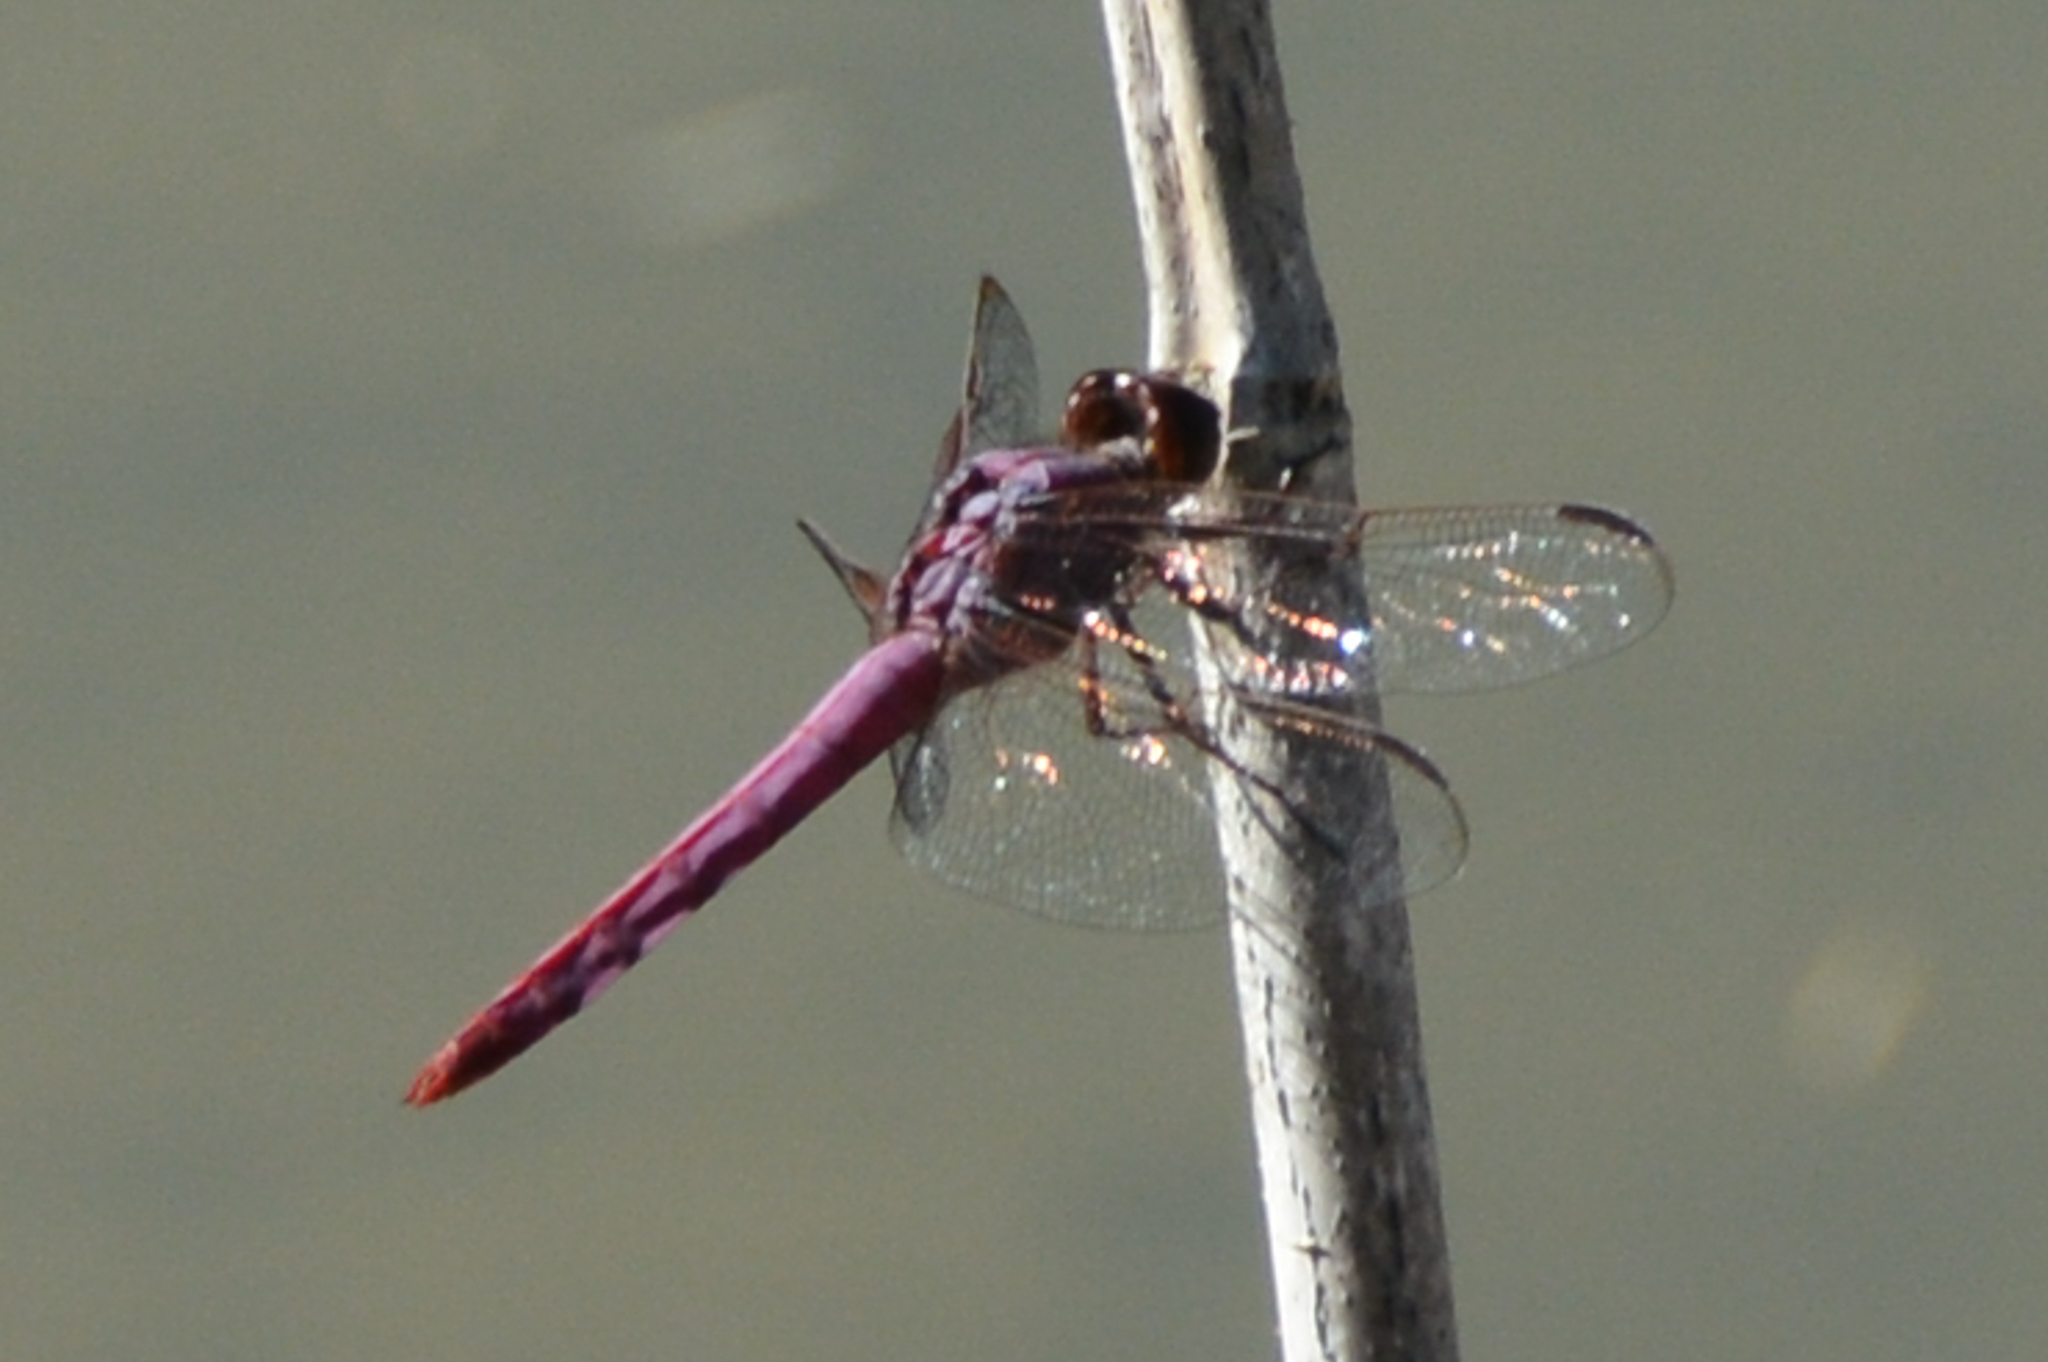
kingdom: Animalia
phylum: Arthropoda
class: Insecta
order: Odonata
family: Libellulidae
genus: Orthemis
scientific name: Orthemis ferruginea
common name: Roseate skimmer
